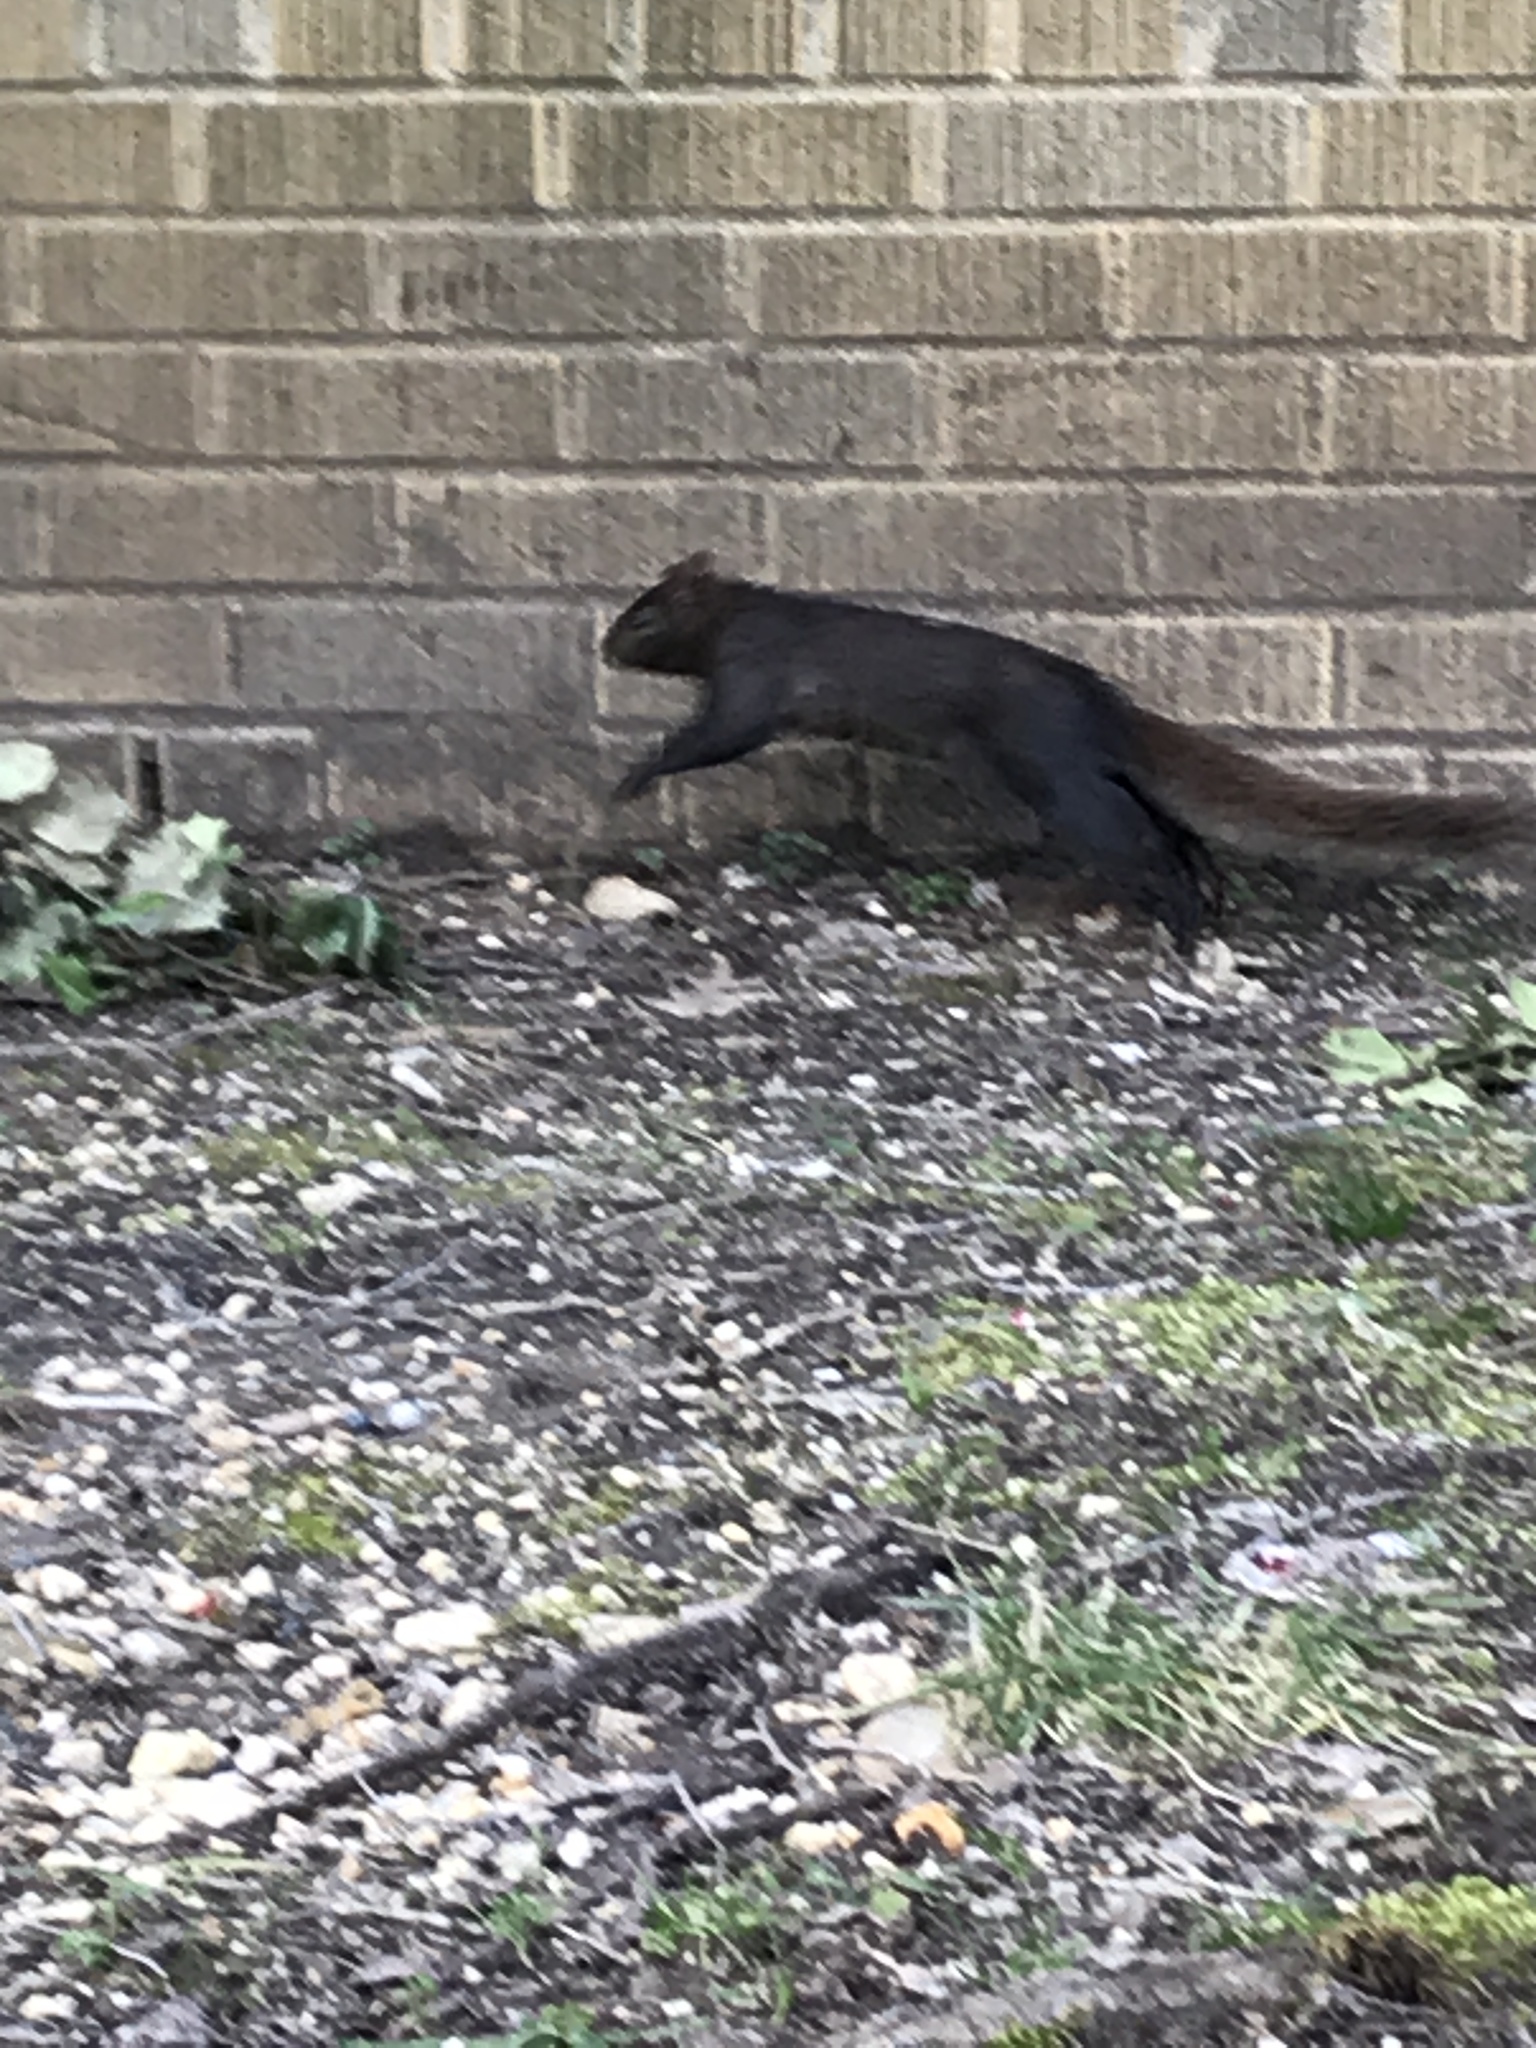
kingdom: Animalia
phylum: Chordata
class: Mammalia
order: Rodentia
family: Sciuridae
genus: Sciurus
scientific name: Sciurus carolinensis
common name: Eastern gray squirrel
